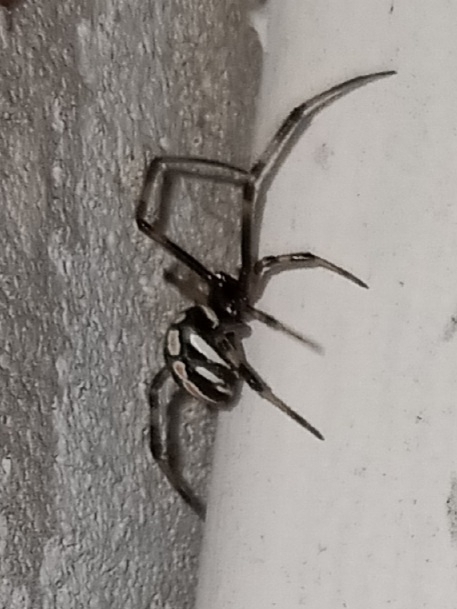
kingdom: Animalia
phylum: Arthropoda
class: Arachnida
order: Araneae
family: Theridiidae
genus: Latrodectus
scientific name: Latrodectus mactans
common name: Cobweb spiders
